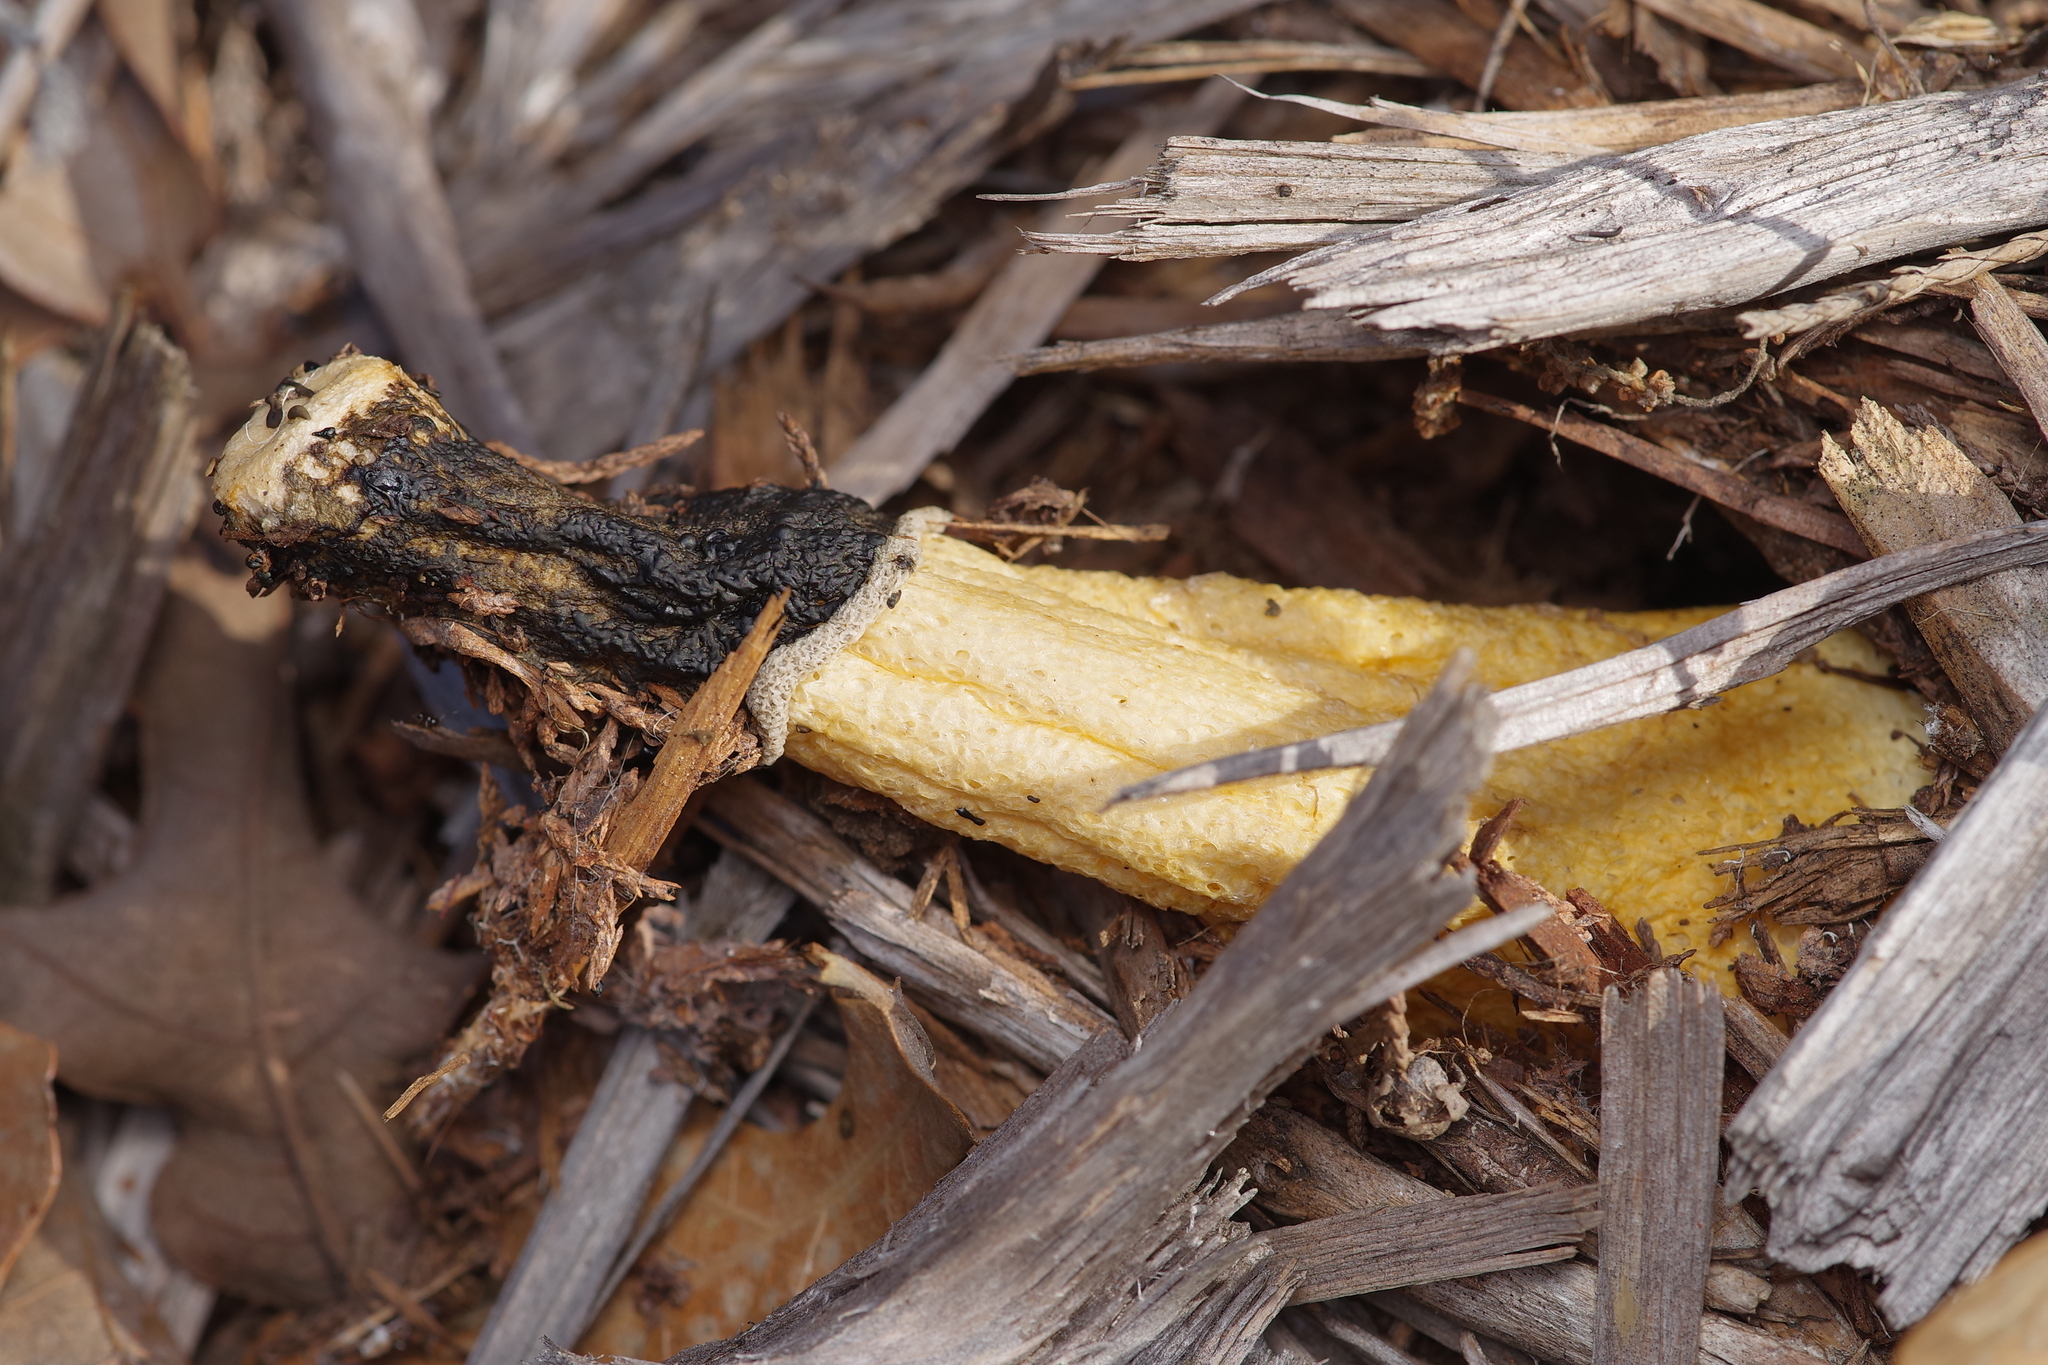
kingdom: Fungi
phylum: Basidiomycota
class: Agaricomycetes
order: Phallales
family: Phallaceae
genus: Phallus
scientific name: Phallus ravenelii
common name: Ravenel's stinkhorn
